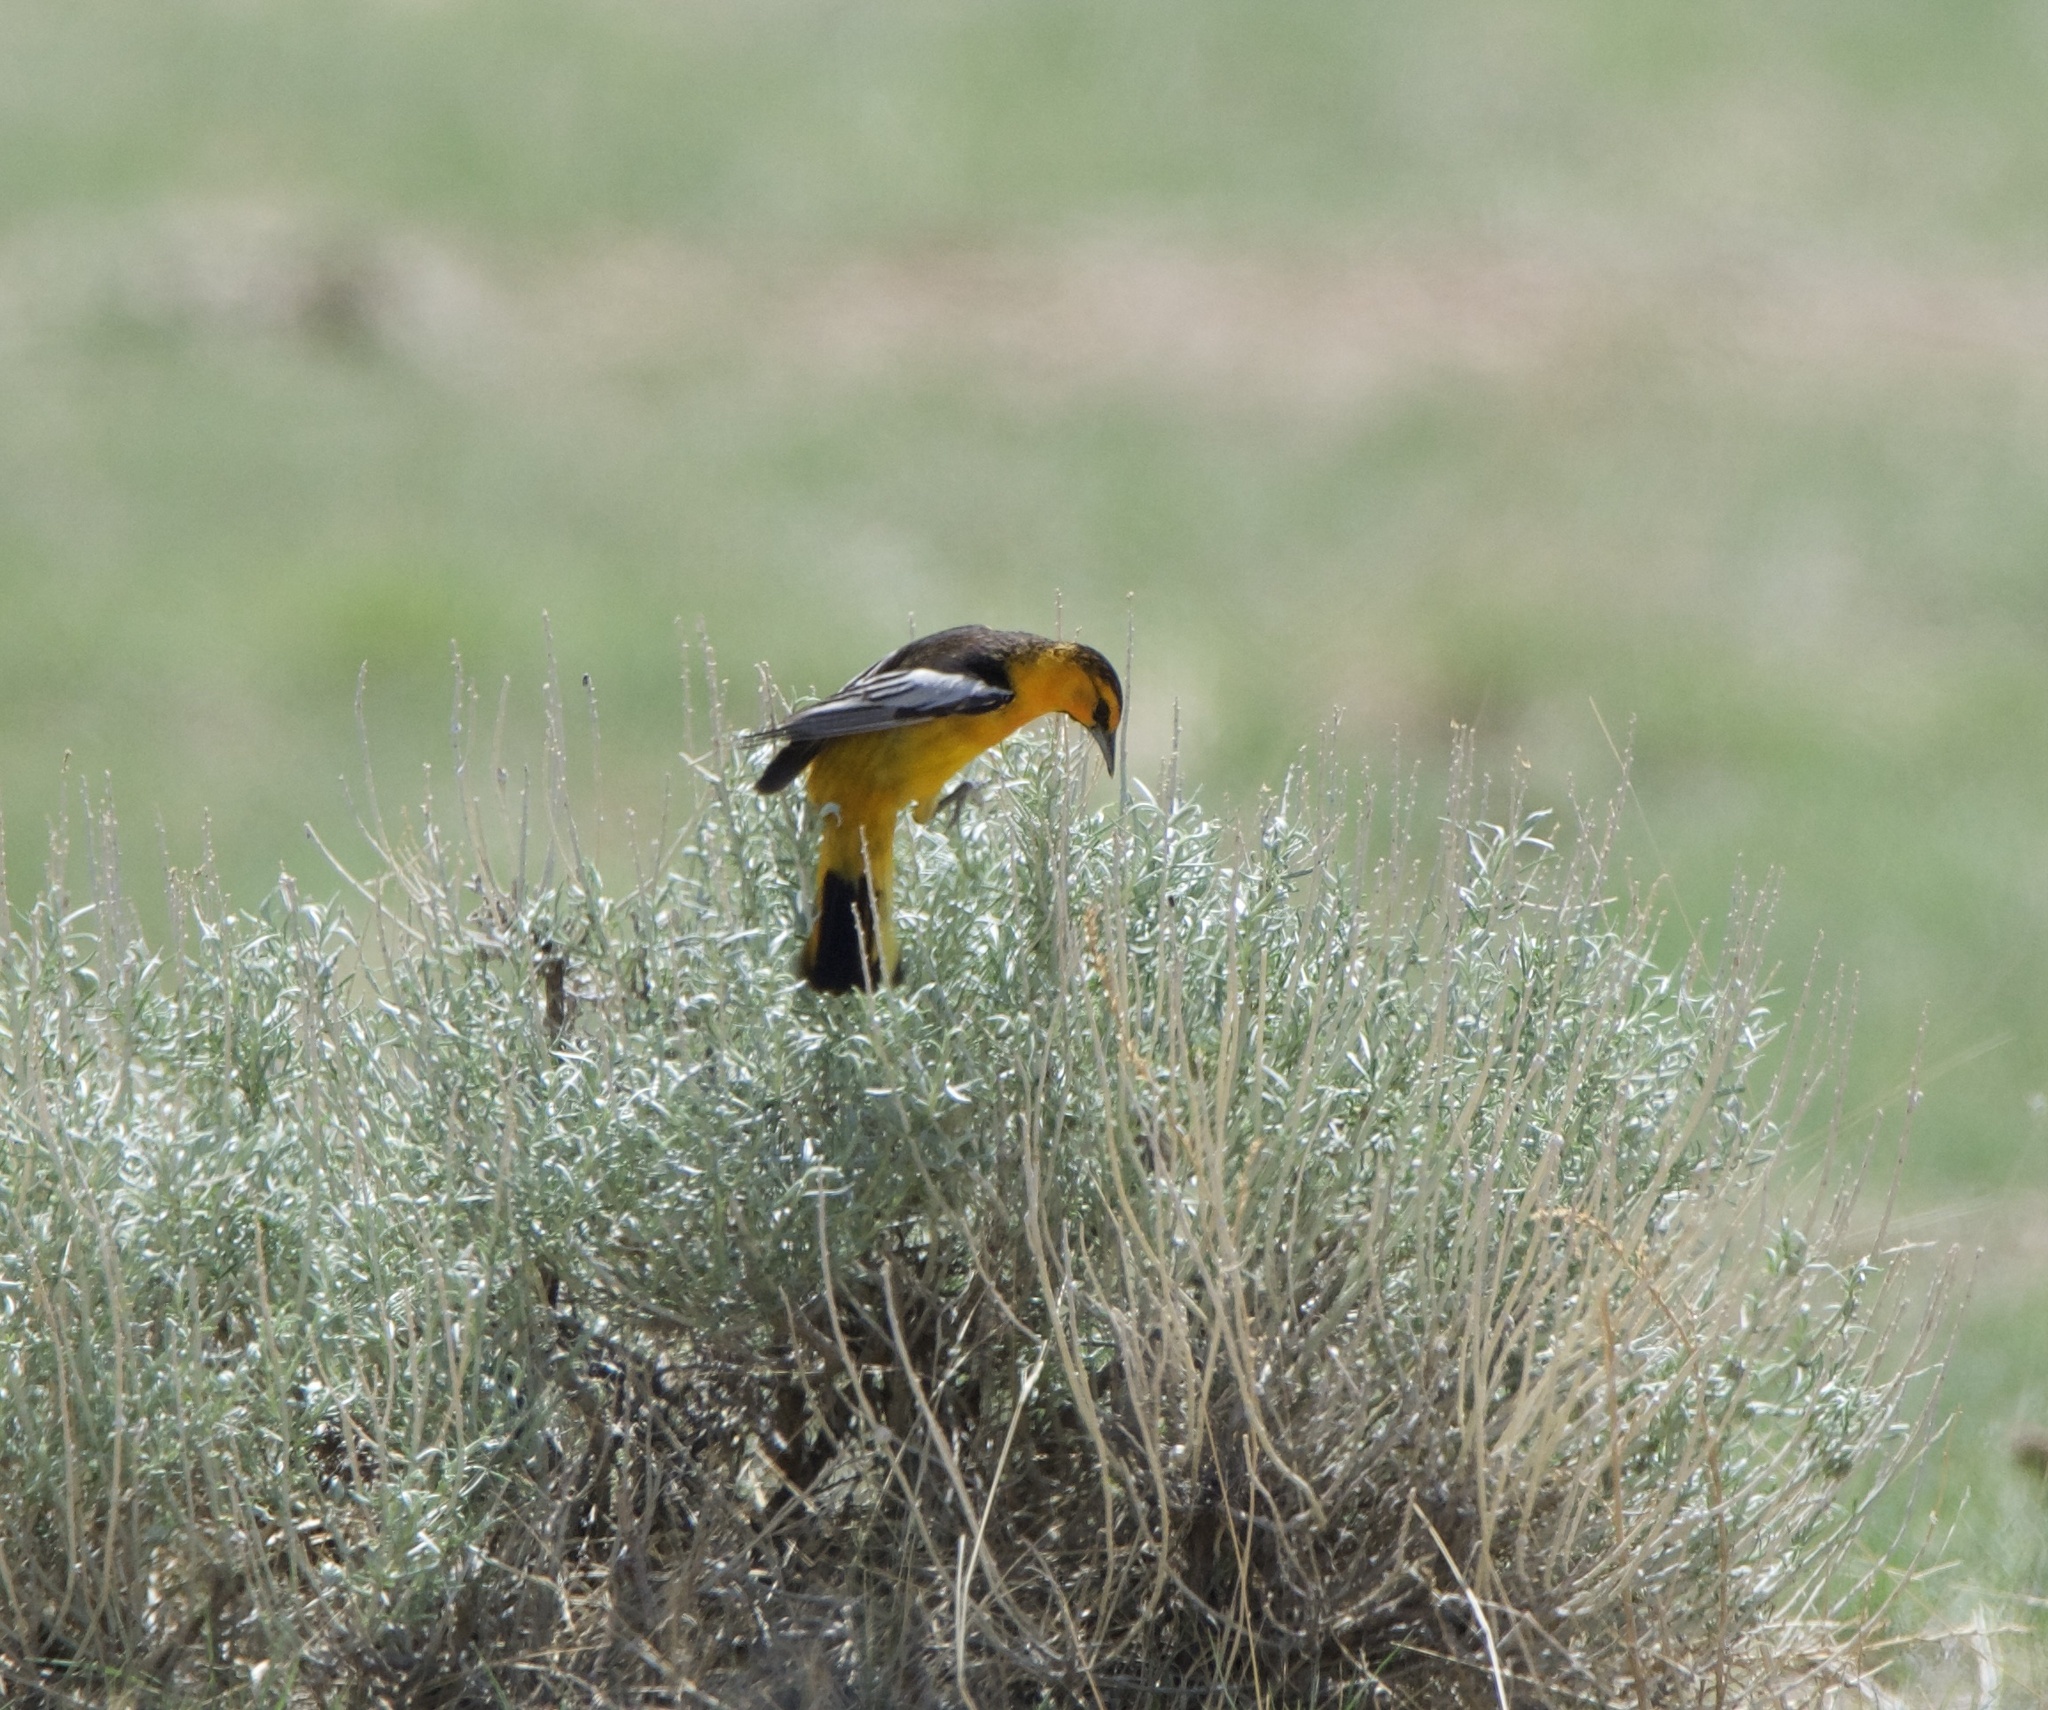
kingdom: Animalia
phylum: Chordata
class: Aves
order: Passeriformes
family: Icteridae
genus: Icterus
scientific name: Icterus bullockii
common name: Bullock's oriole
